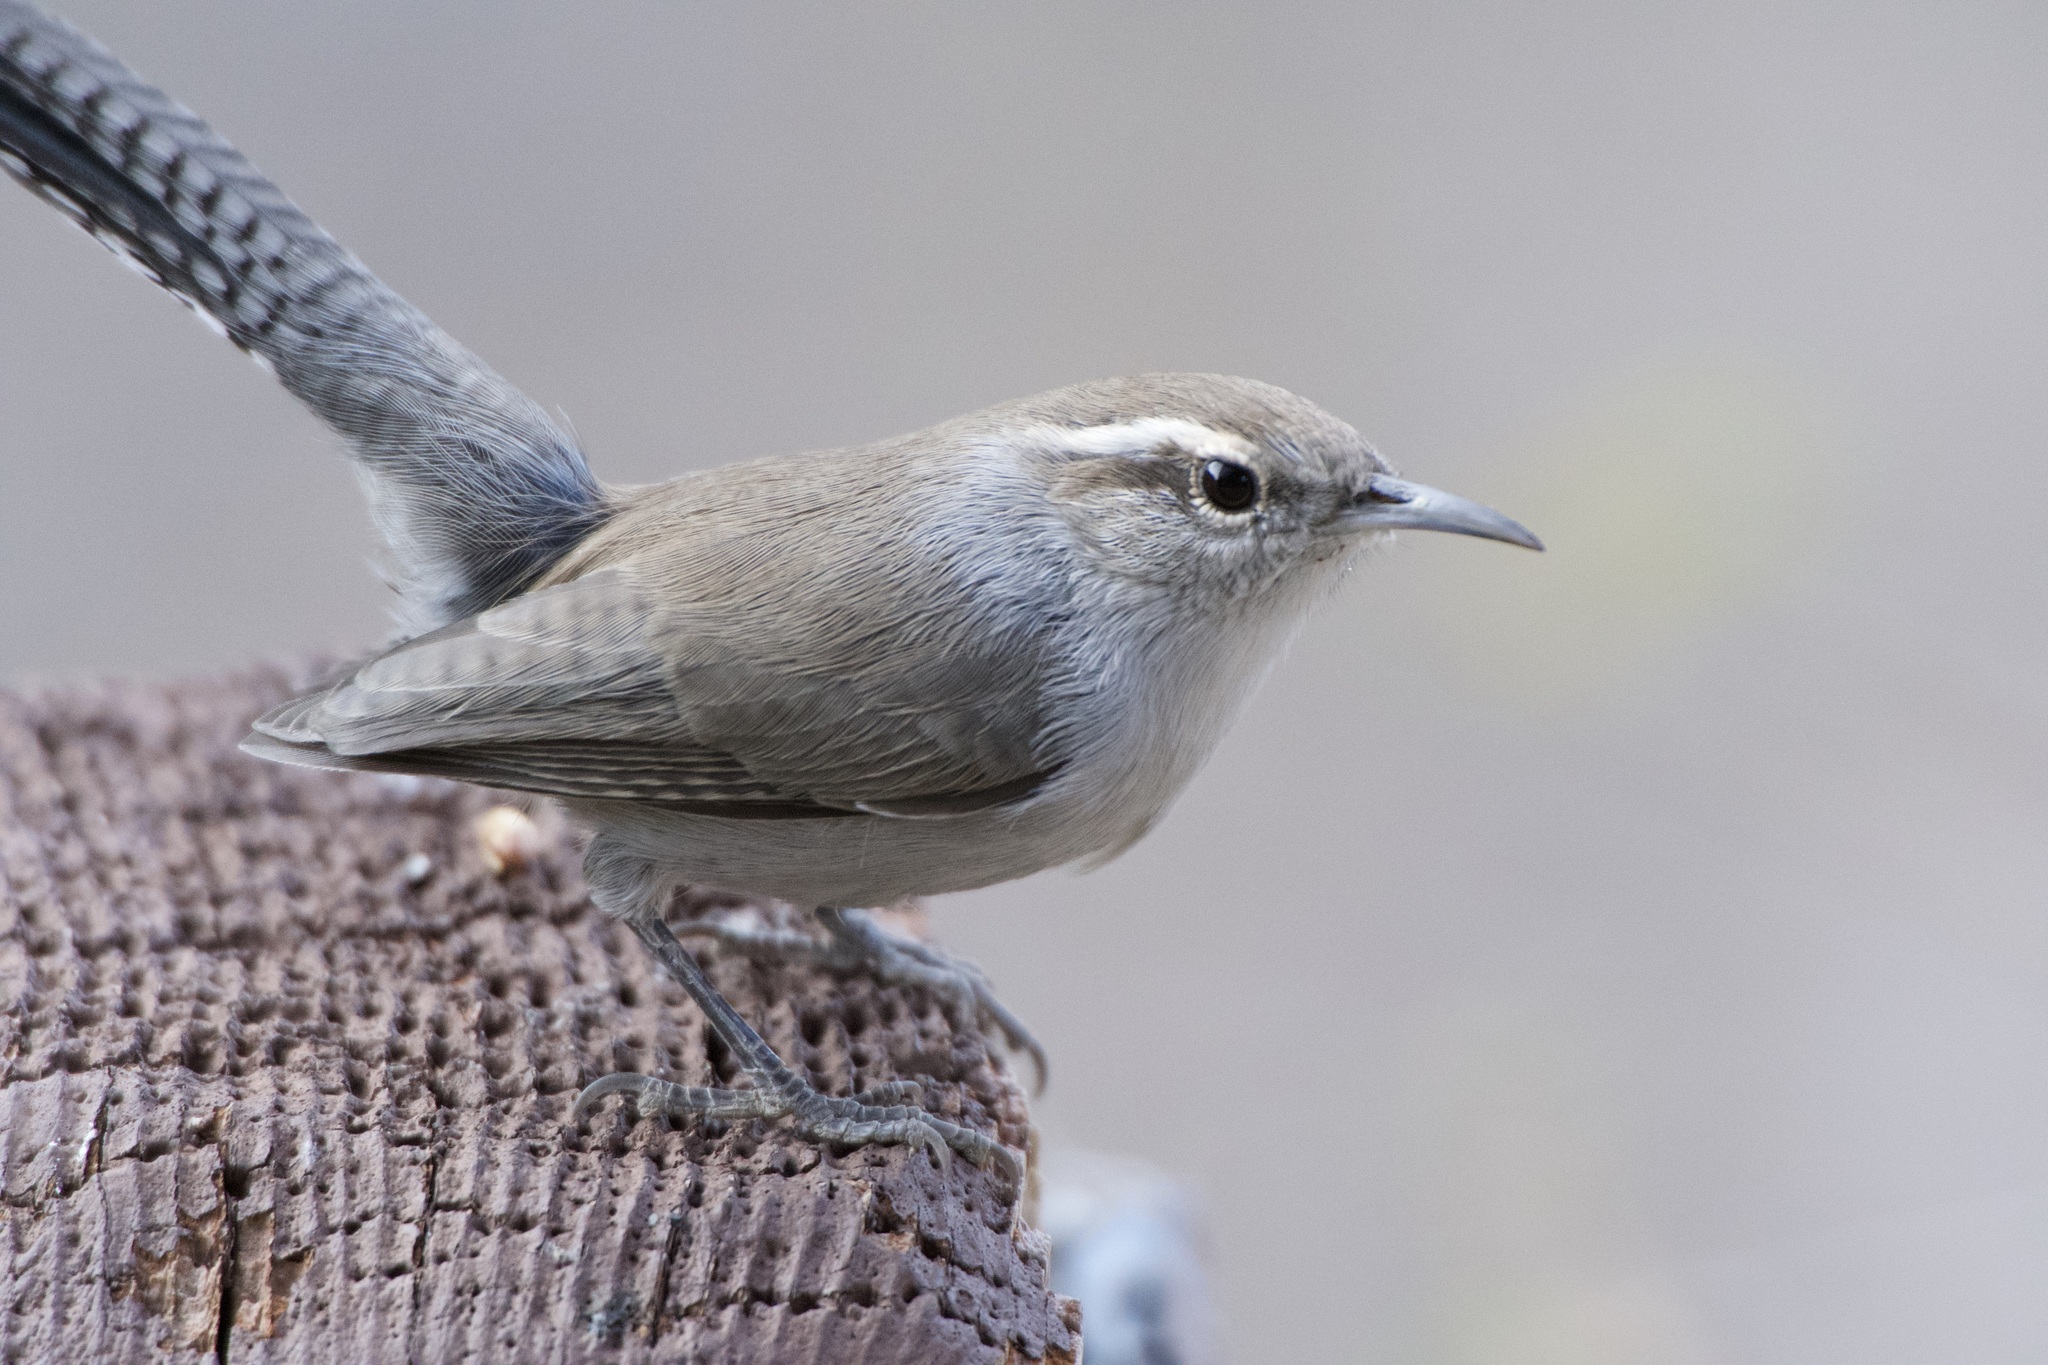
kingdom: Animalia
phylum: Chordata
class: Aves
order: Passeriformes
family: Troglodytidae
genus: Thryomanes
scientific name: Thryomanes bewickii
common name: Bewick's wren
